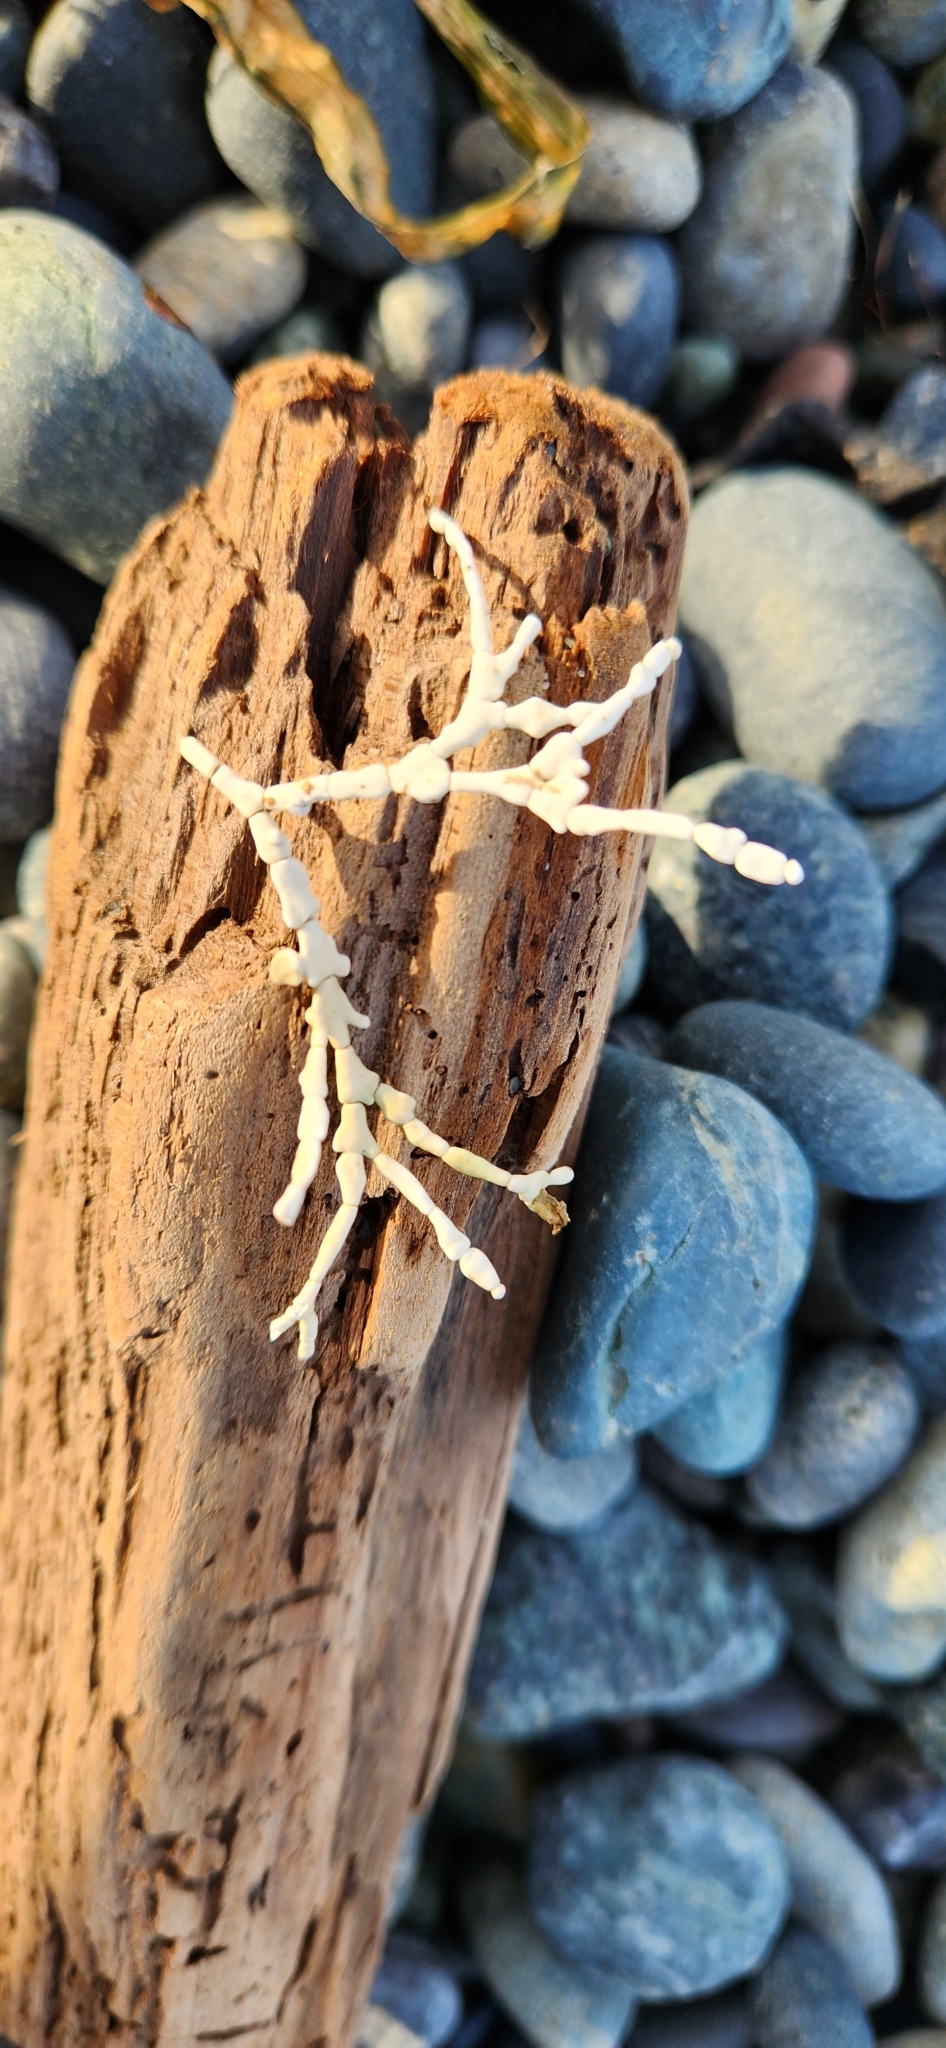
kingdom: Plantae
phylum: Rhodophyta
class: Florideophyceae
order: Corallinales
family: Corallinaceae
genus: Calliarthron
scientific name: Calliarthron tuberculosum
